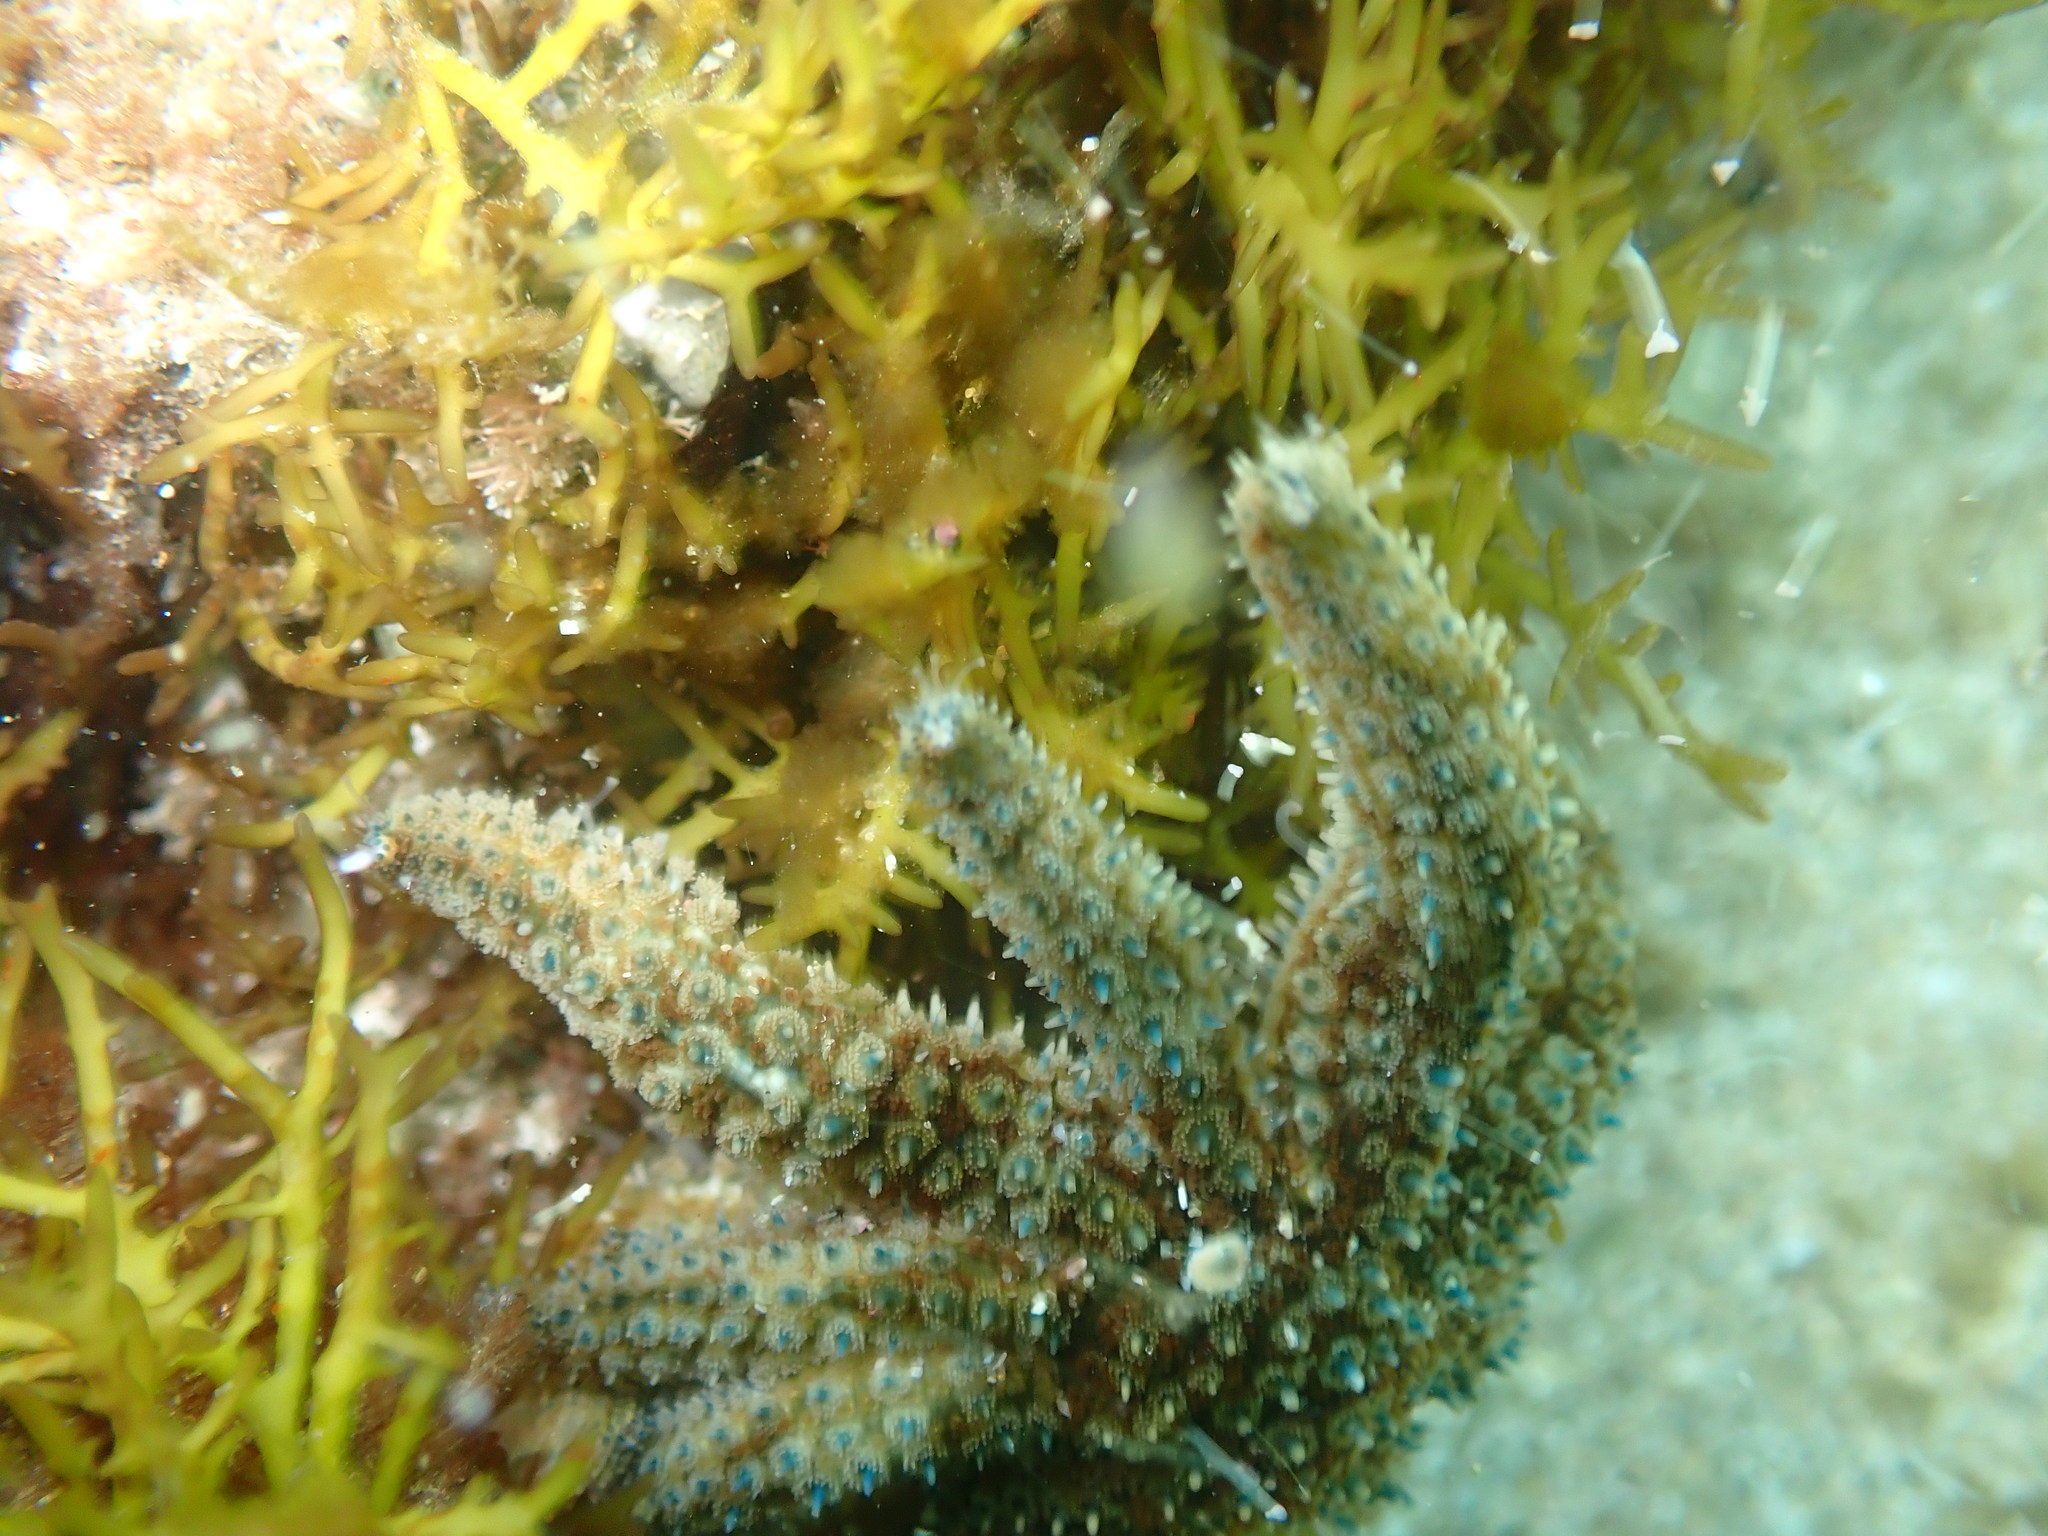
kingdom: Animalia
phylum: Echinodermata
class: Asteroidea
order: Forcipulatida
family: Asteriidae
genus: Coscinasterias
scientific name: Coscinasterias muricata
